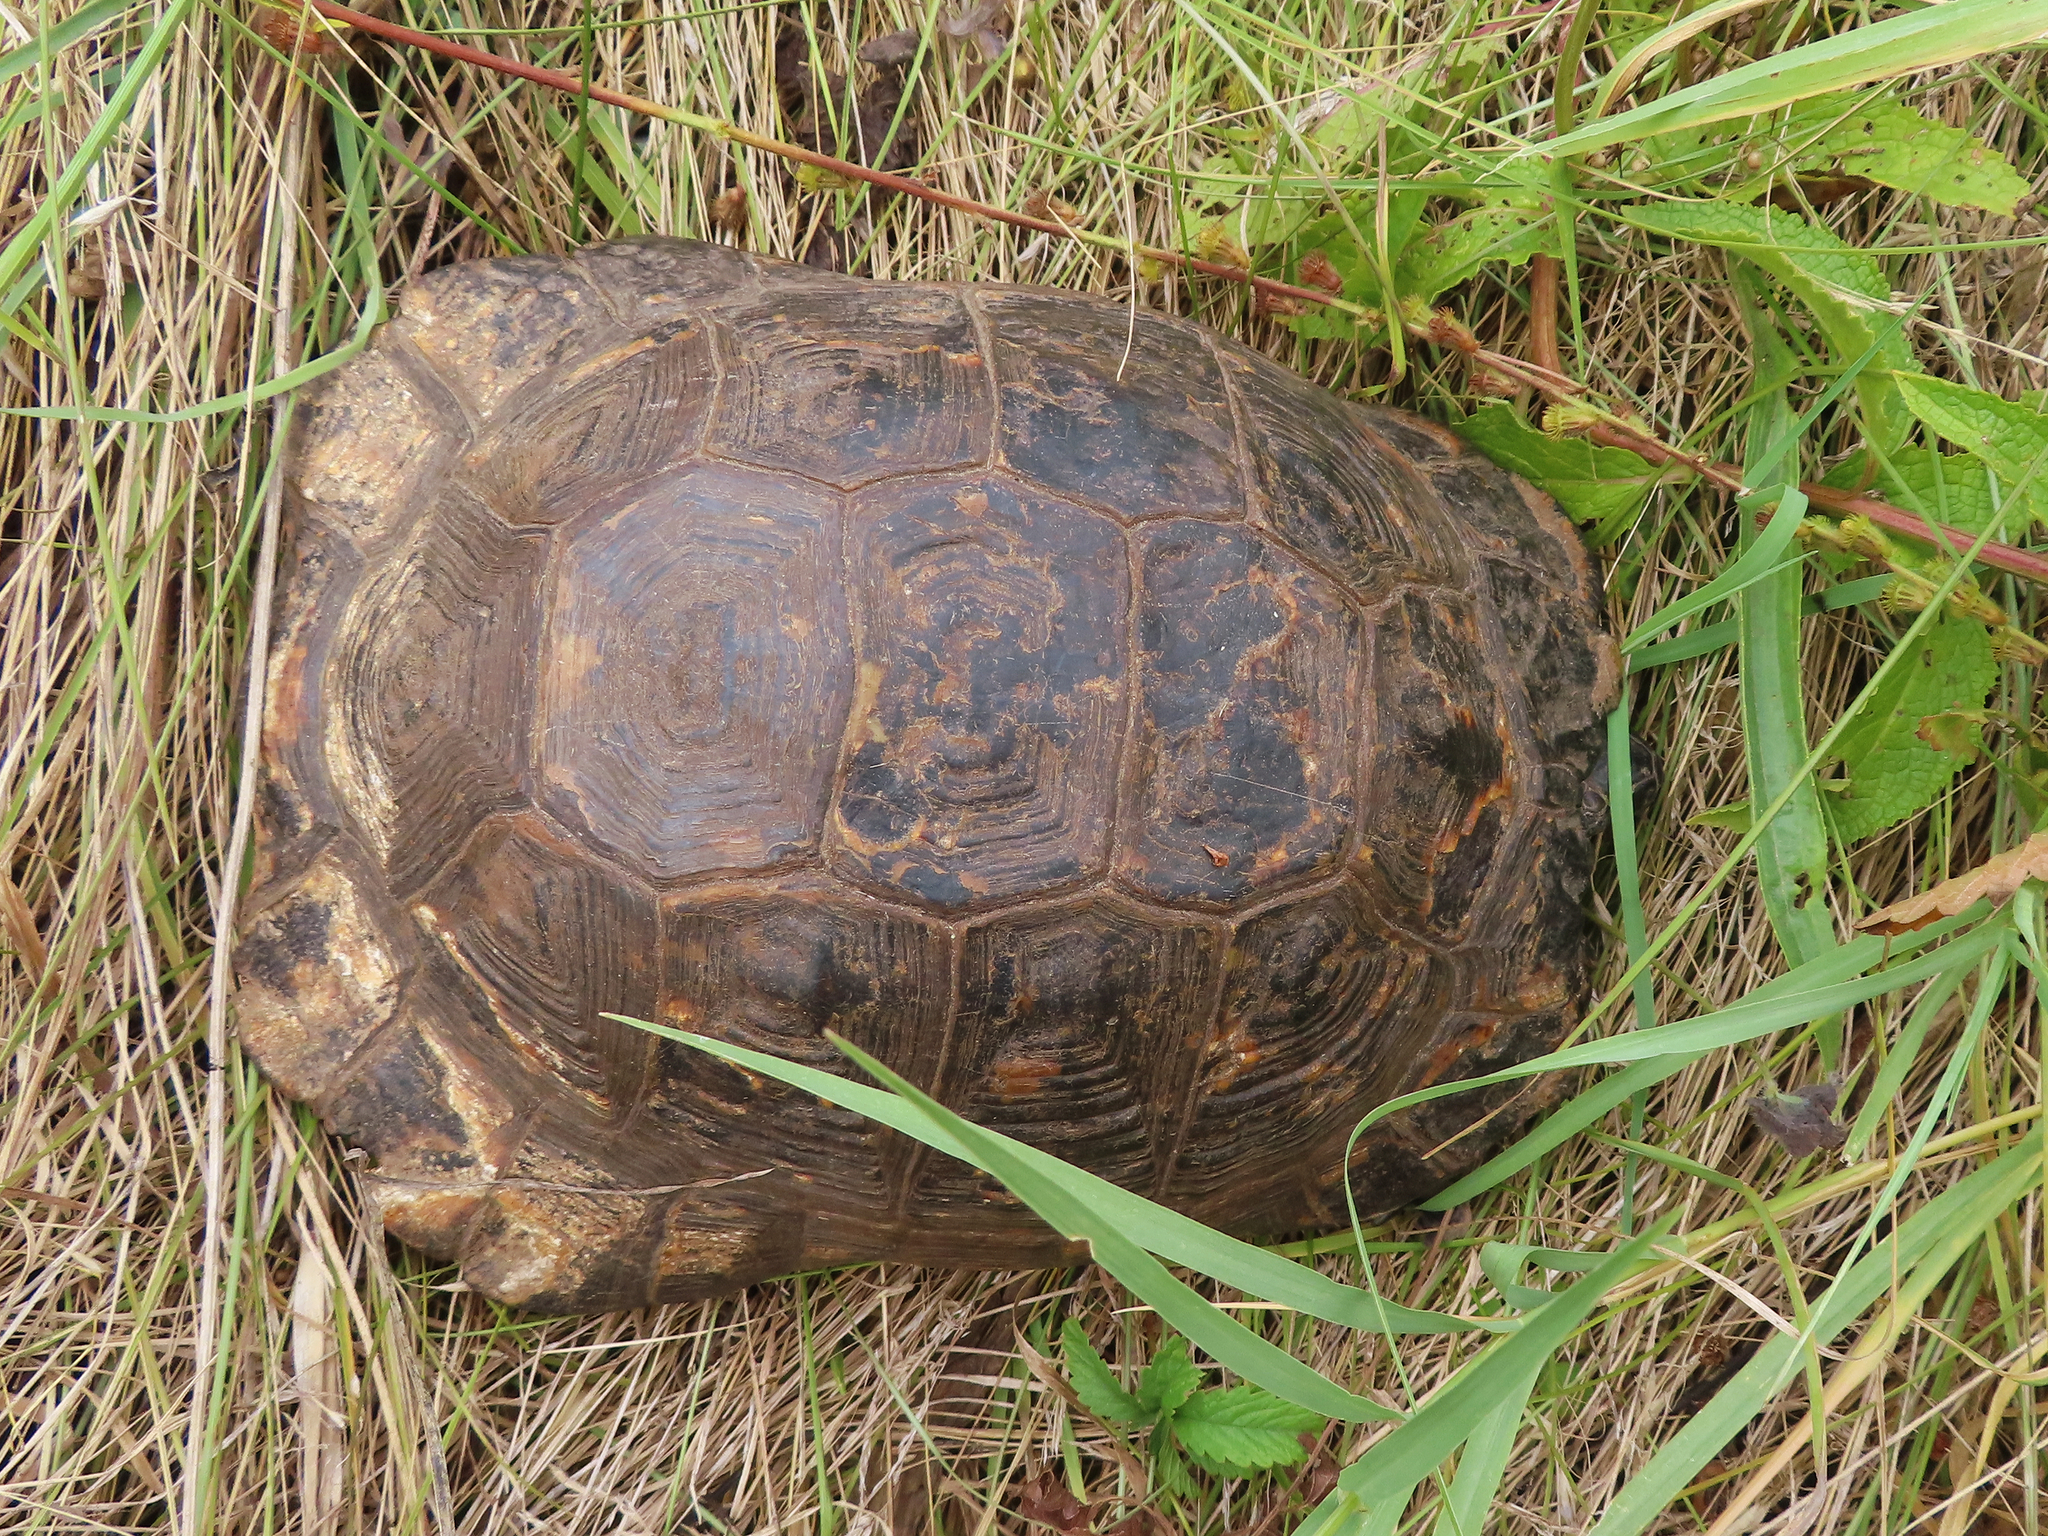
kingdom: Animalia
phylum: Chordata
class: Testudines
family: Testudinidae
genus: Testudo
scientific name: Testudo graeca
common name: Common tortoise
